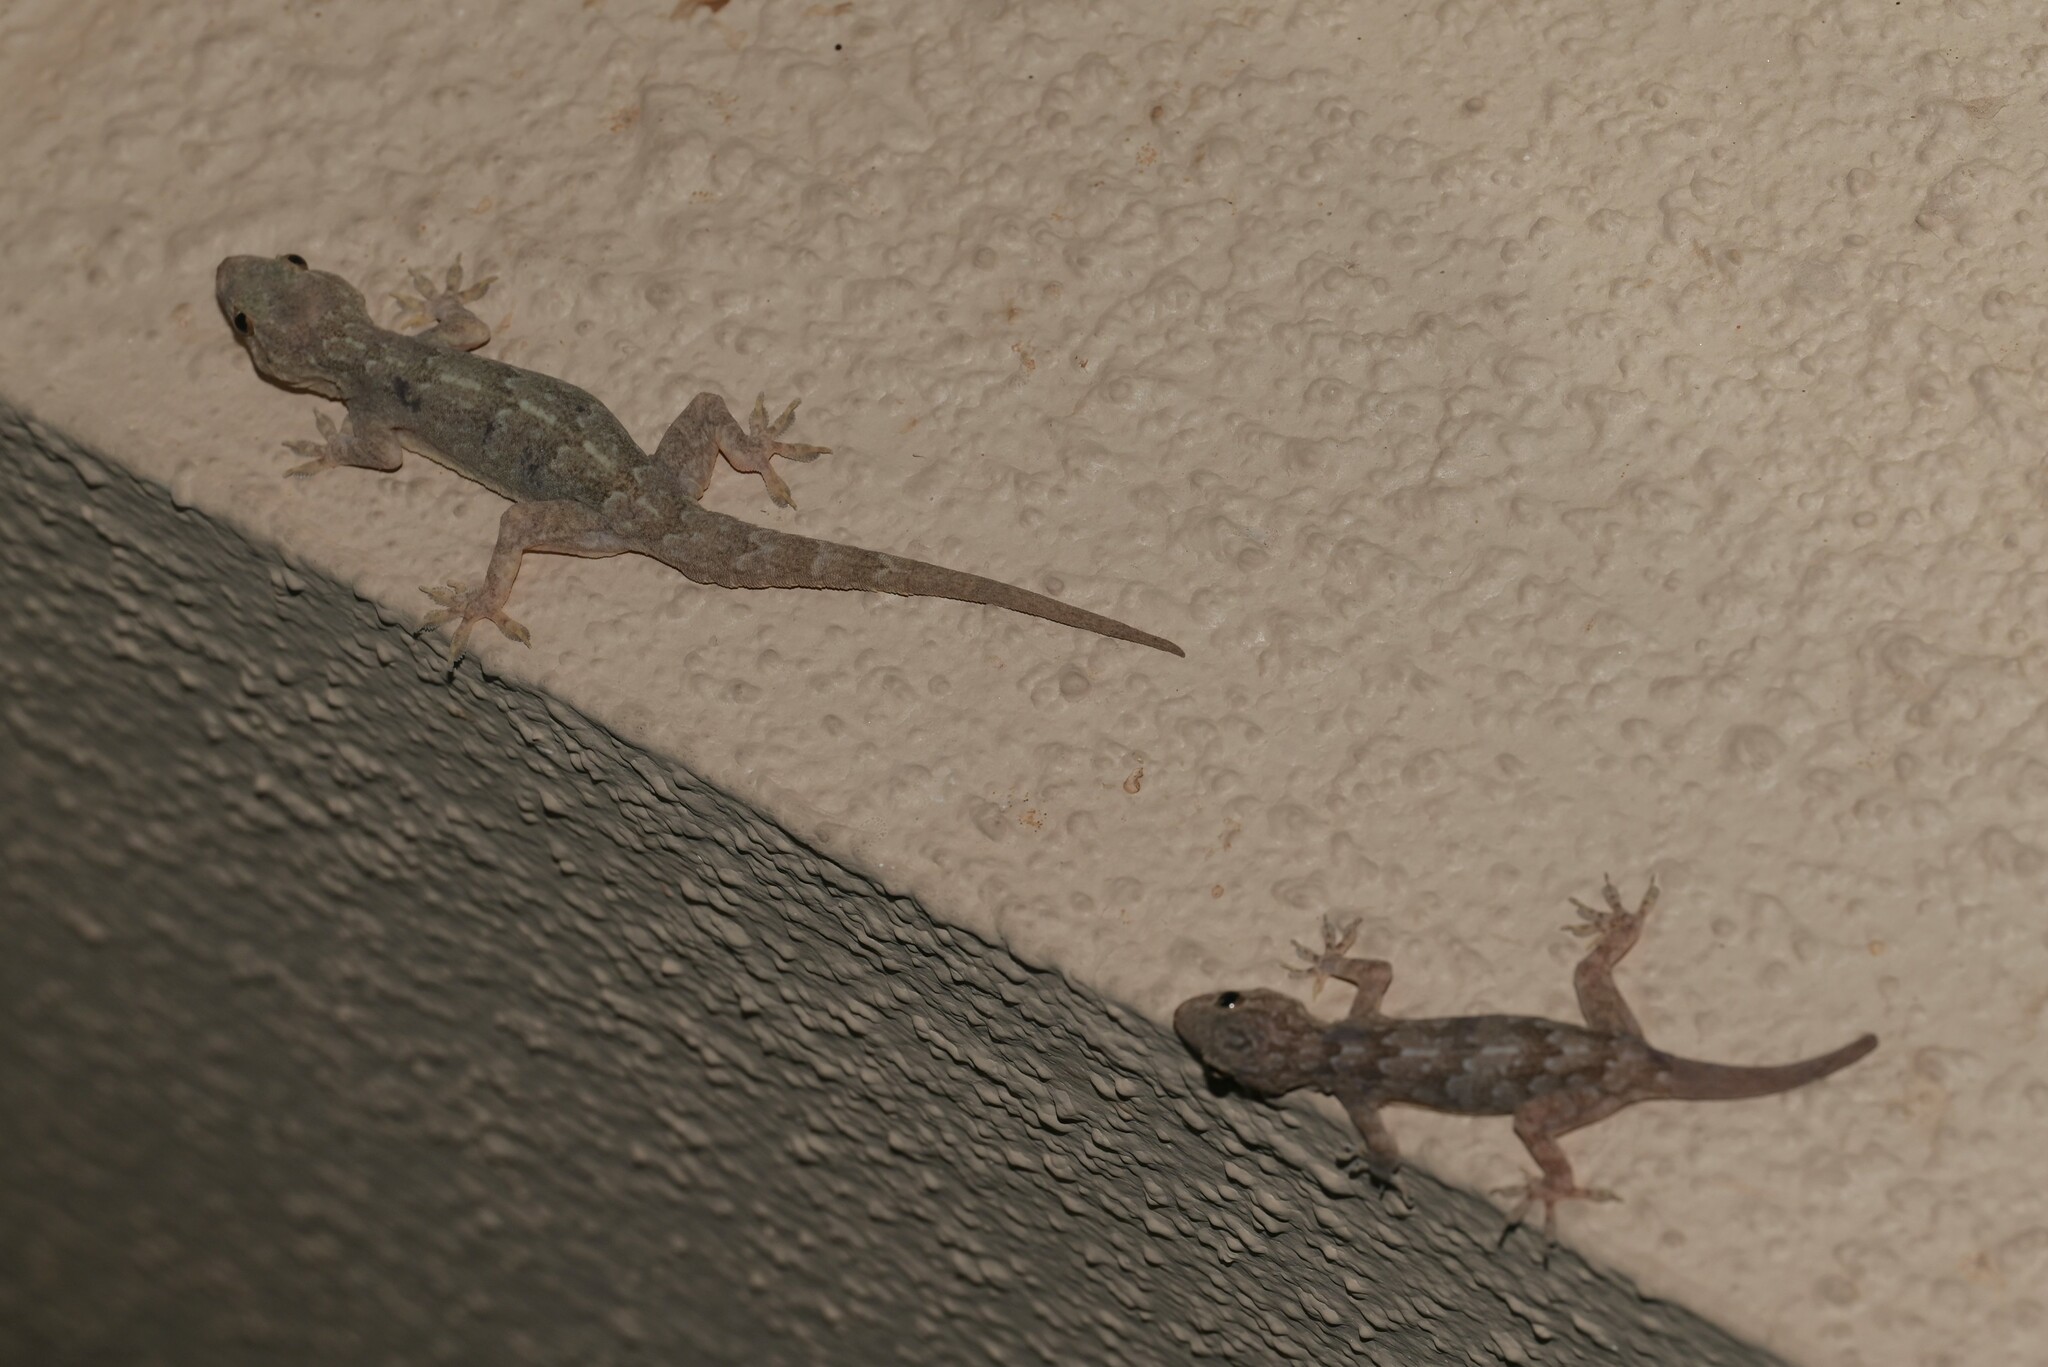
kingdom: Animalia
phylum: Chordata
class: Squamata
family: Gekkonidae
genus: Hemidactylus
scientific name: Hemidactylus flaviviridis
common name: Northern house gecko
